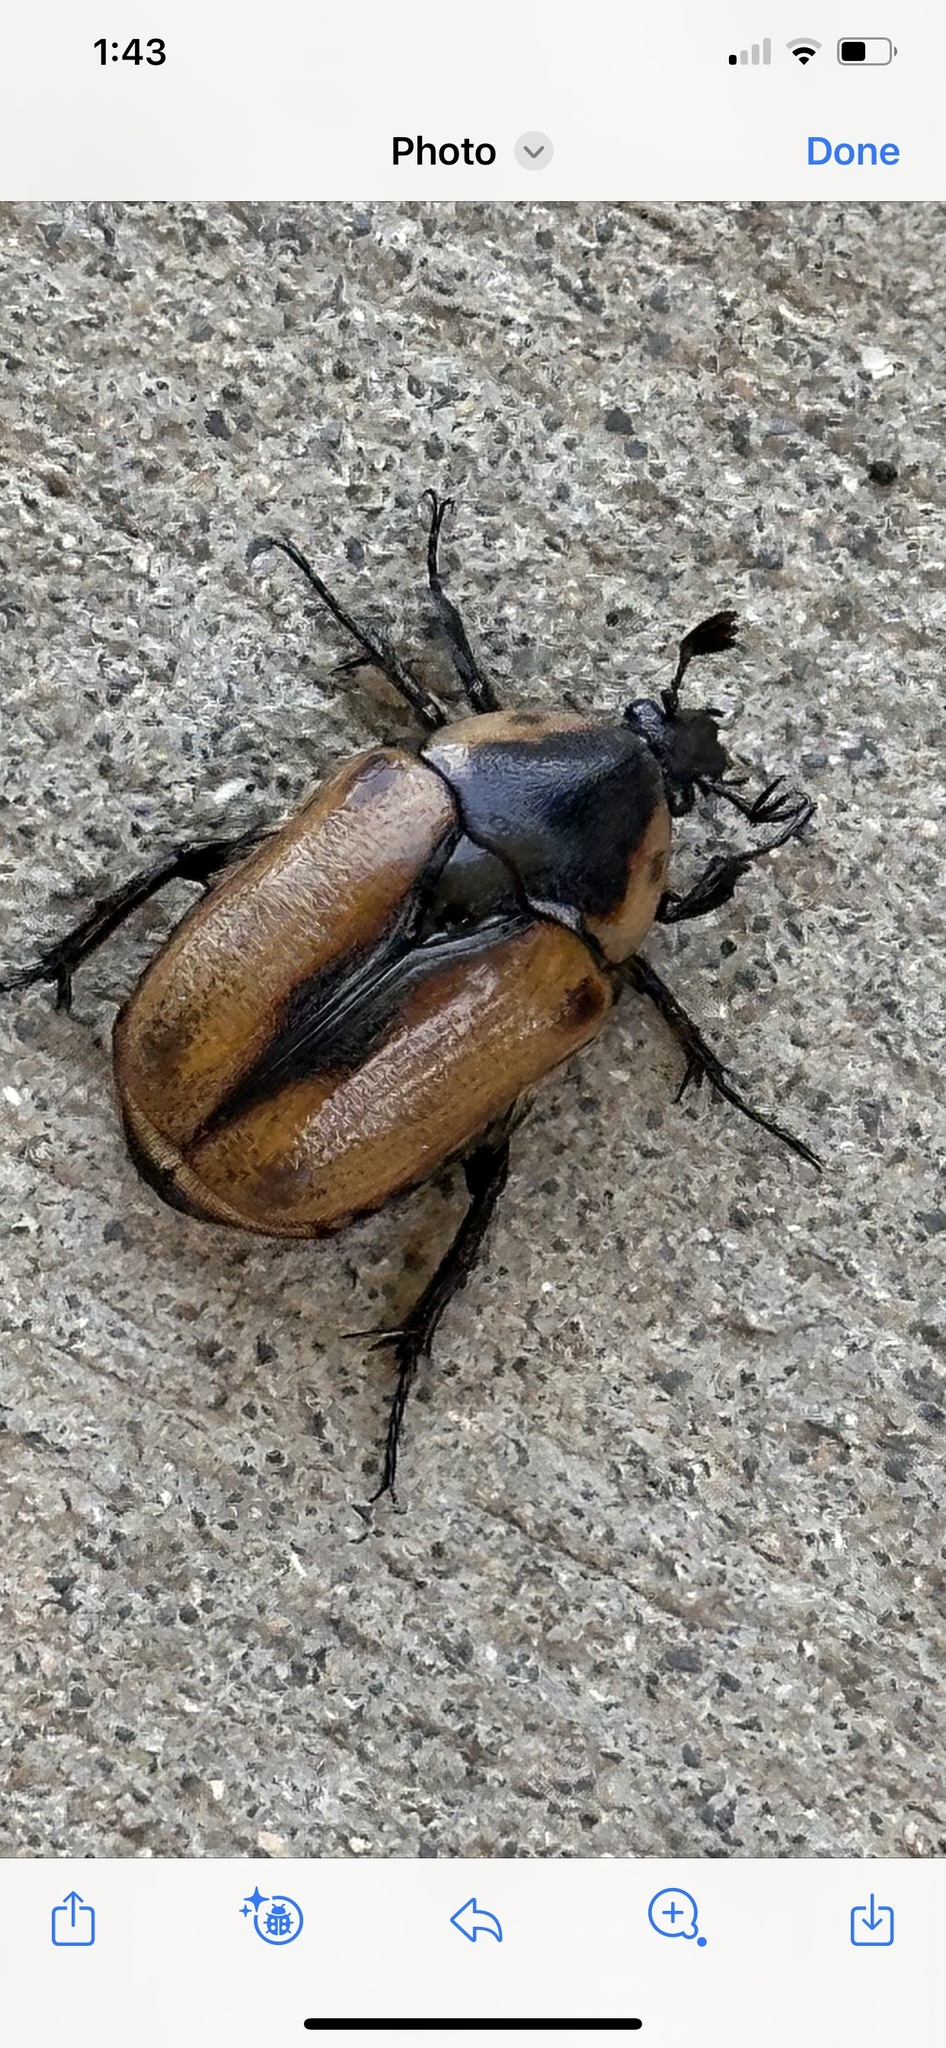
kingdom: Animalia
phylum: Arthropoda
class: Insecta
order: Coleoptera
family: Scarabaeidae
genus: Chondropyga
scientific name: Chondropyga dorsalis
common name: Cowboy beetle
